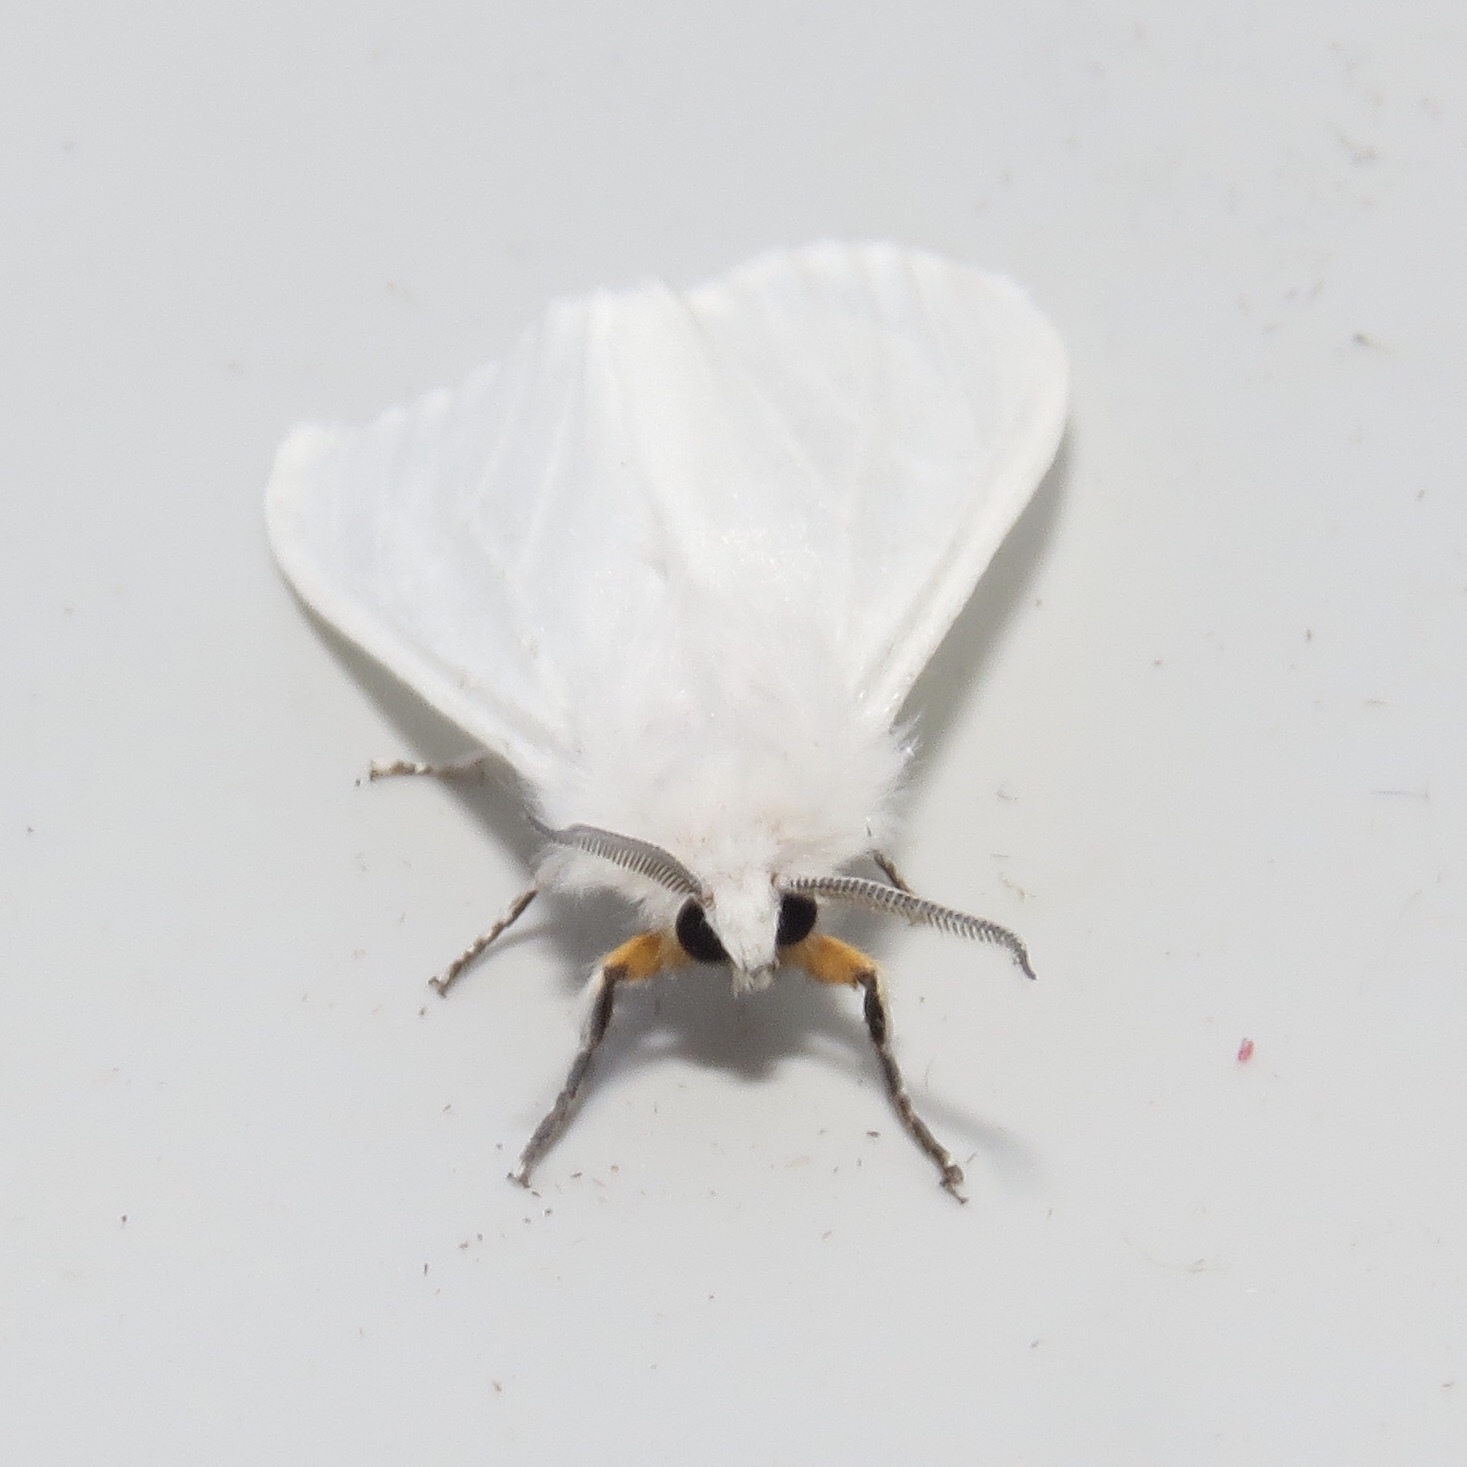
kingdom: Animalia
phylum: Arthropoda
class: Insecta
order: Lepidoptera
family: Erebidae
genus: Hyphantria
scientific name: Hyphantria cunea
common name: American white moth
